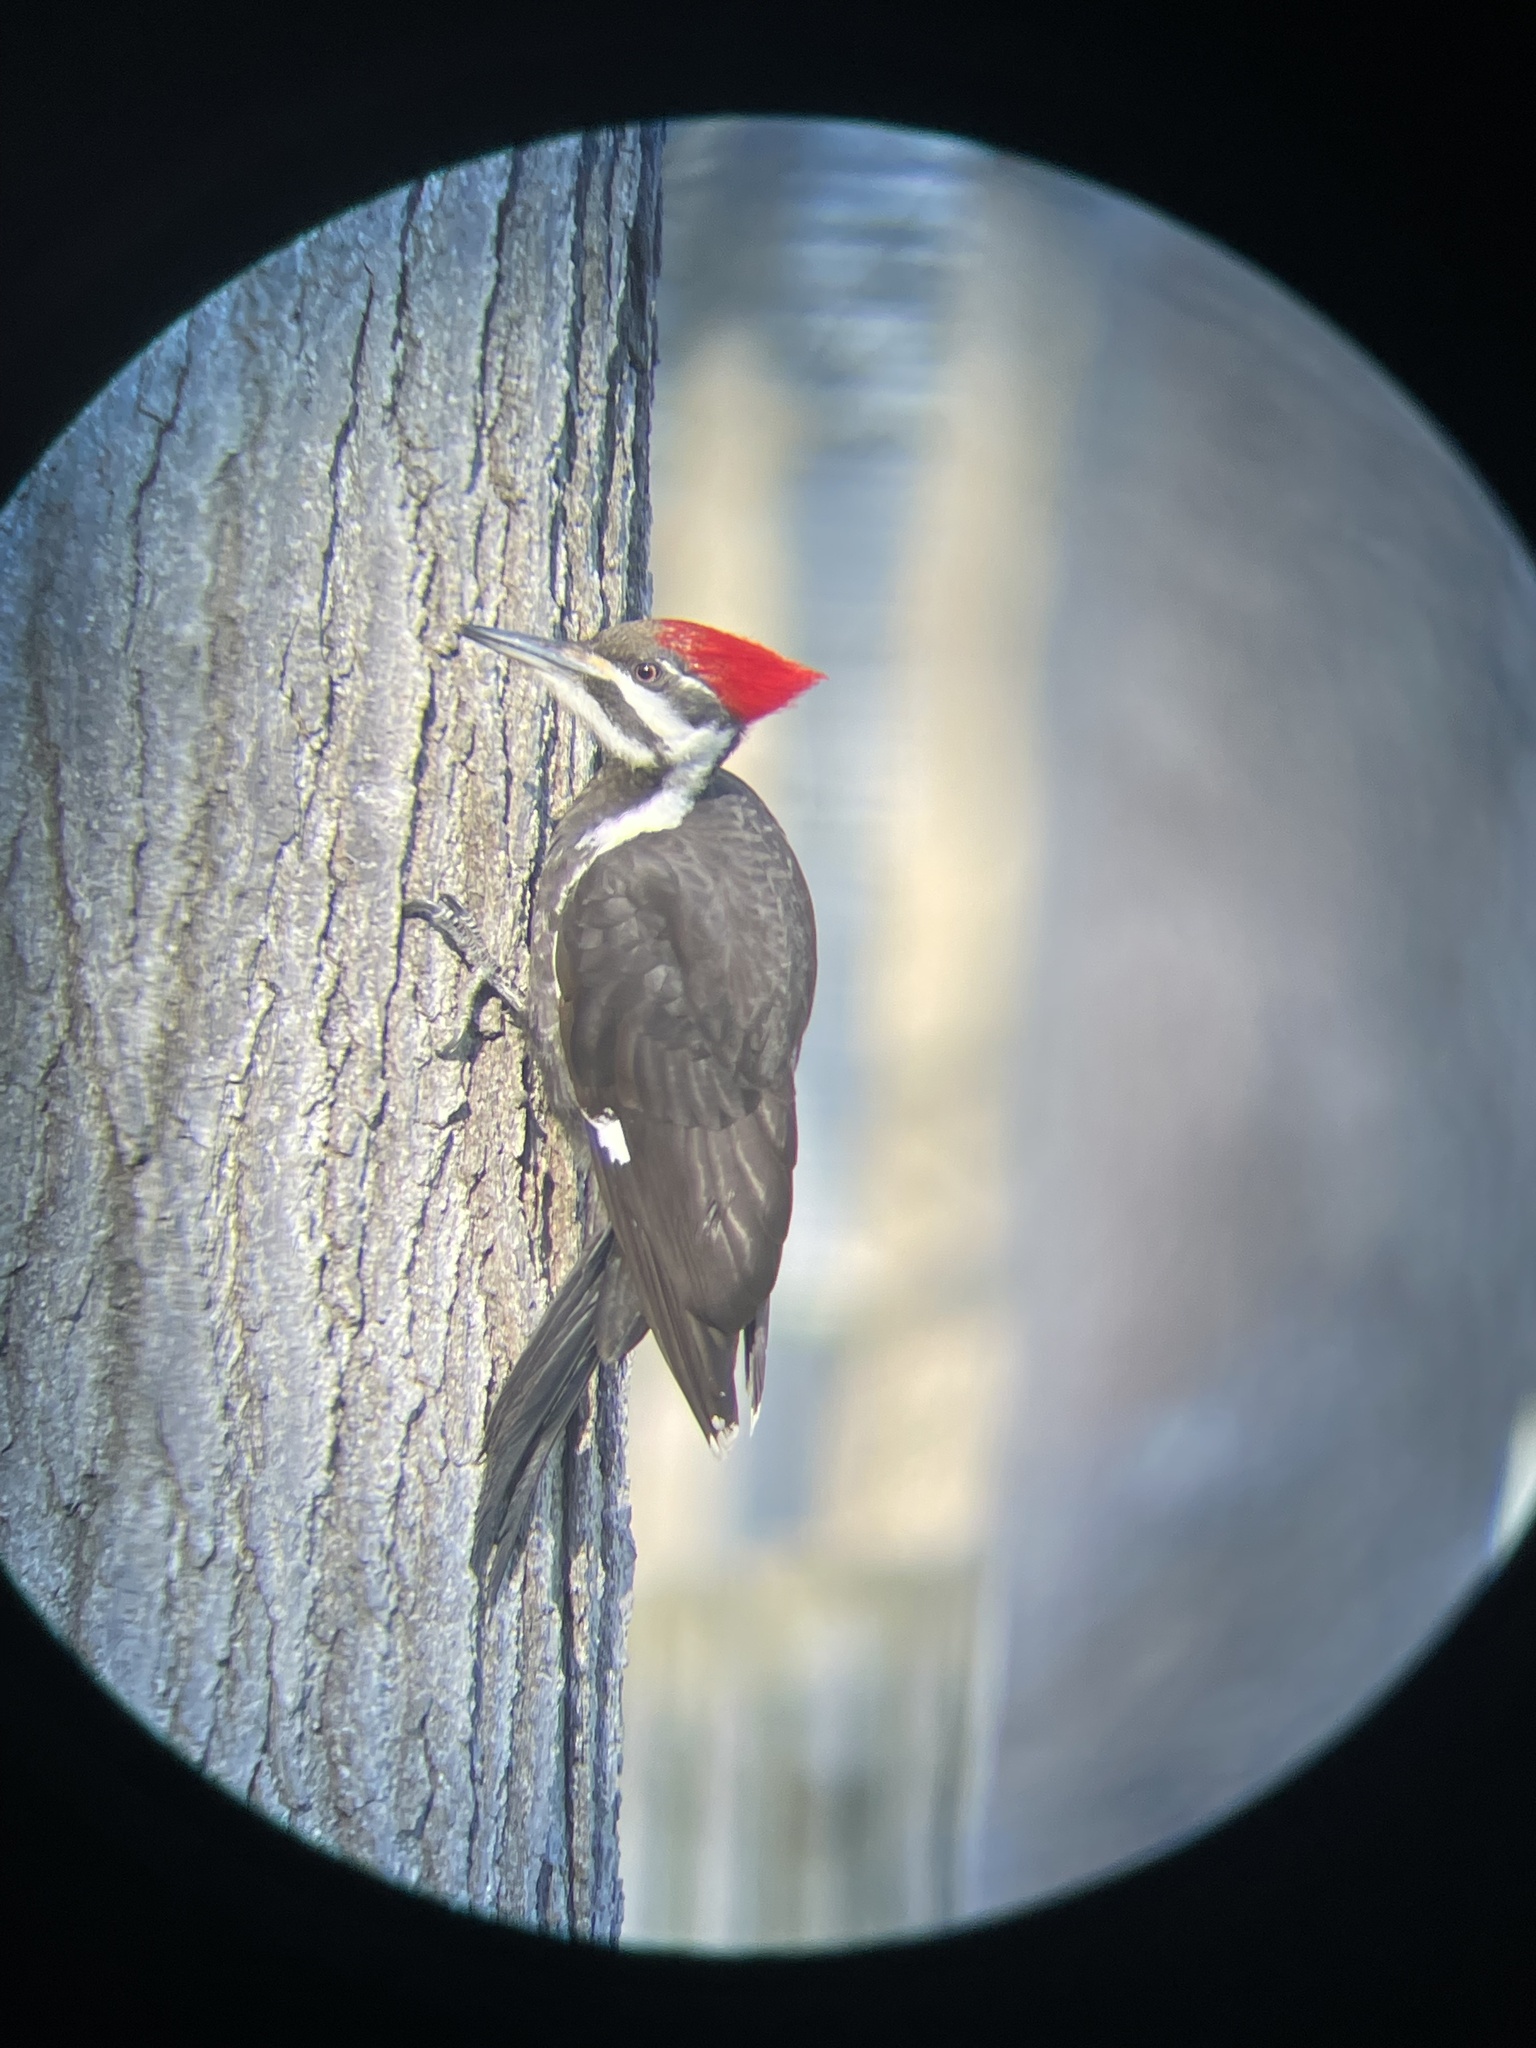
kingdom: Animalia
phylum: Chordata
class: Aves
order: Piciformes
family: Picidae
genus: Dryocopus
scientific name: Dryocopus pileatus
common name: Pileated woodpecker
